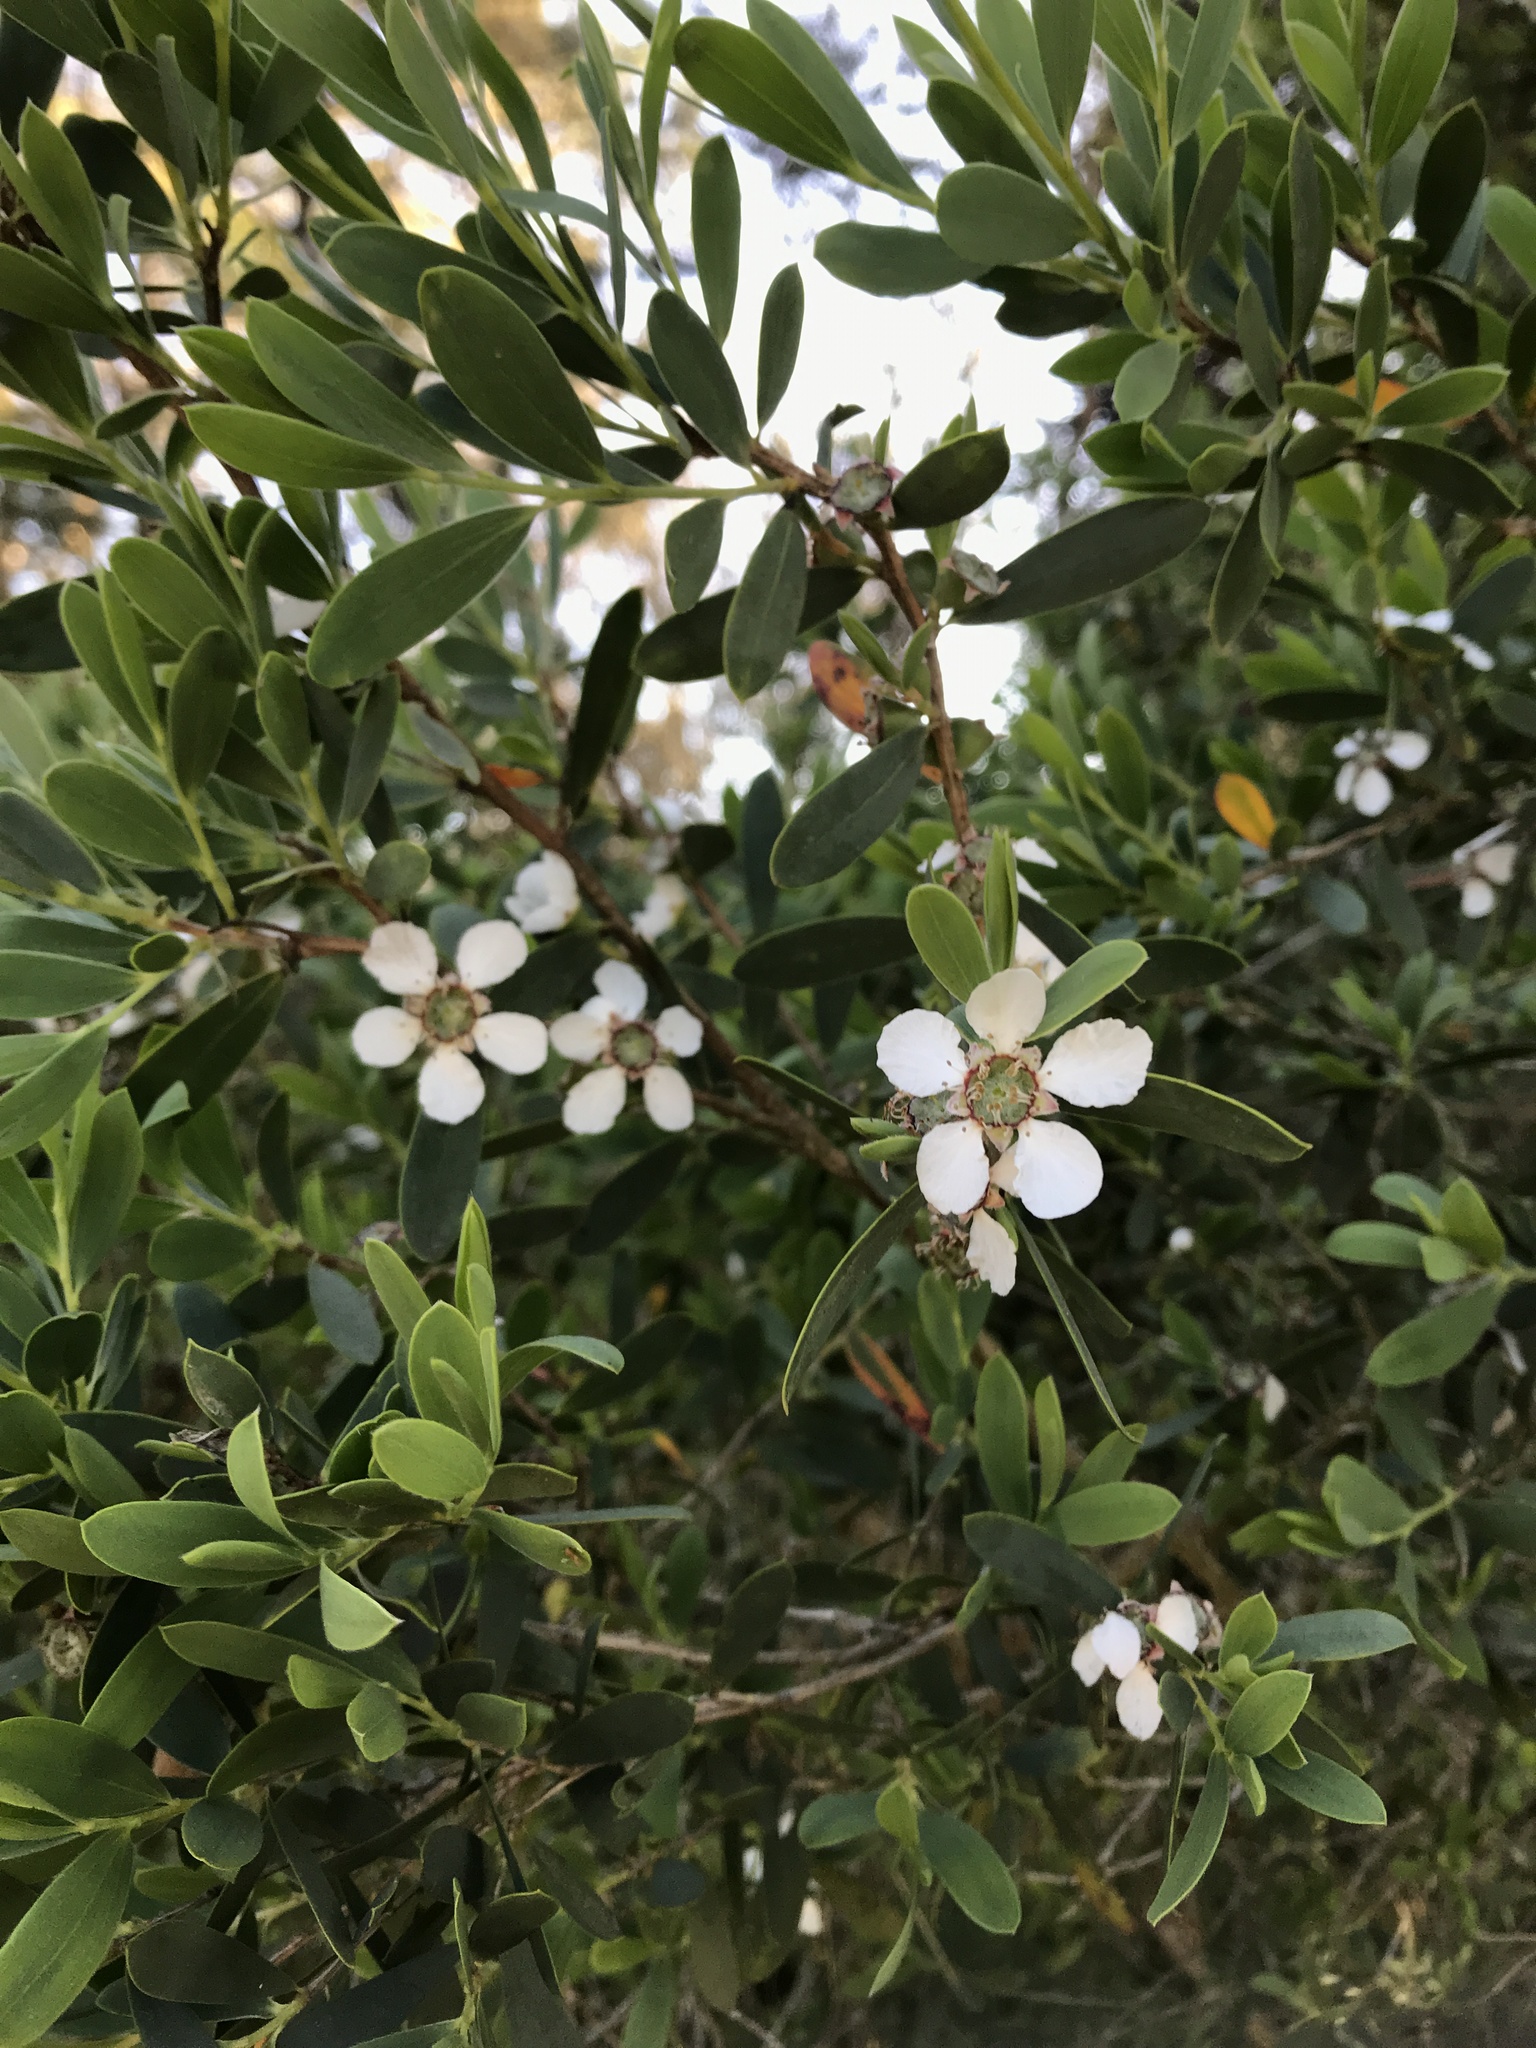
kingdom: Plantae
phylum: Tracheophyta
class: Magnoliopsida
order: Myrtales
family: Myrtaceae
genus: Leptospermum
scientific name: Leptospermum laevigatum
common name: Australian teatree
